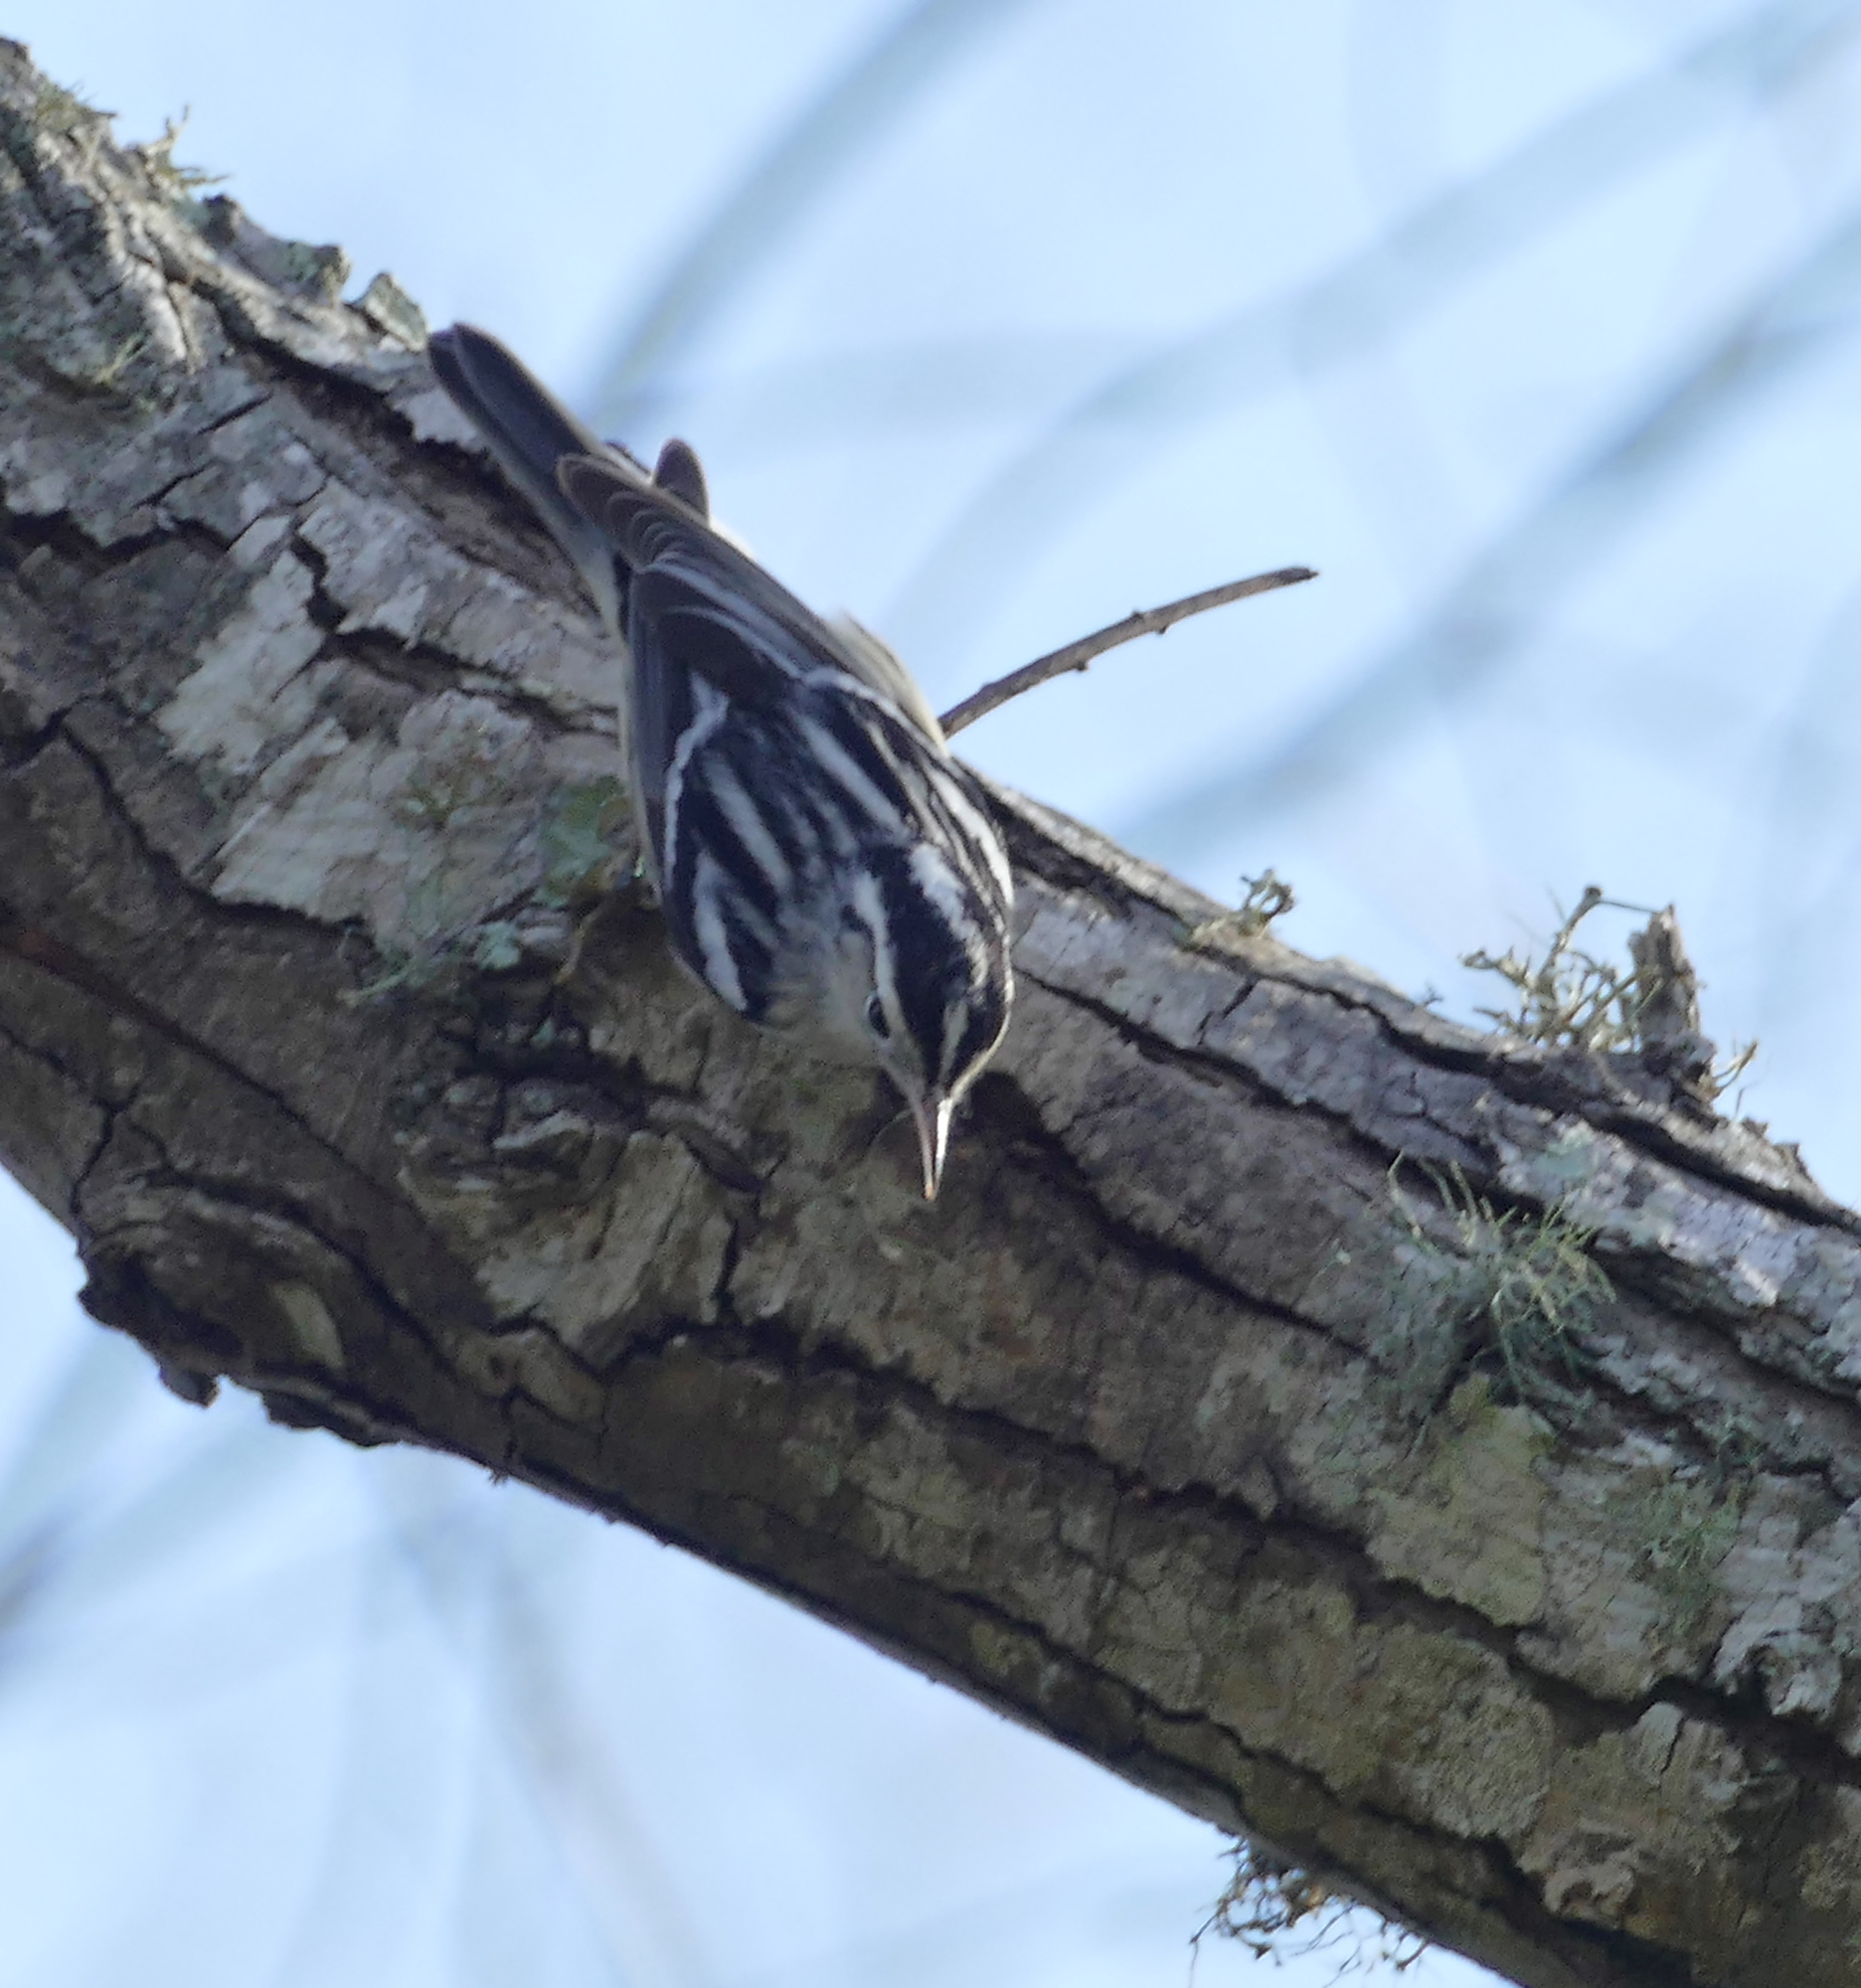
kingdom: Animalia
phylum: Chordata
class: Aves
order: Passeriformes
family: Parulidae
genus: Mniotilta
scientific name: Mniotilta varia
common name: Black-and-white warbler
